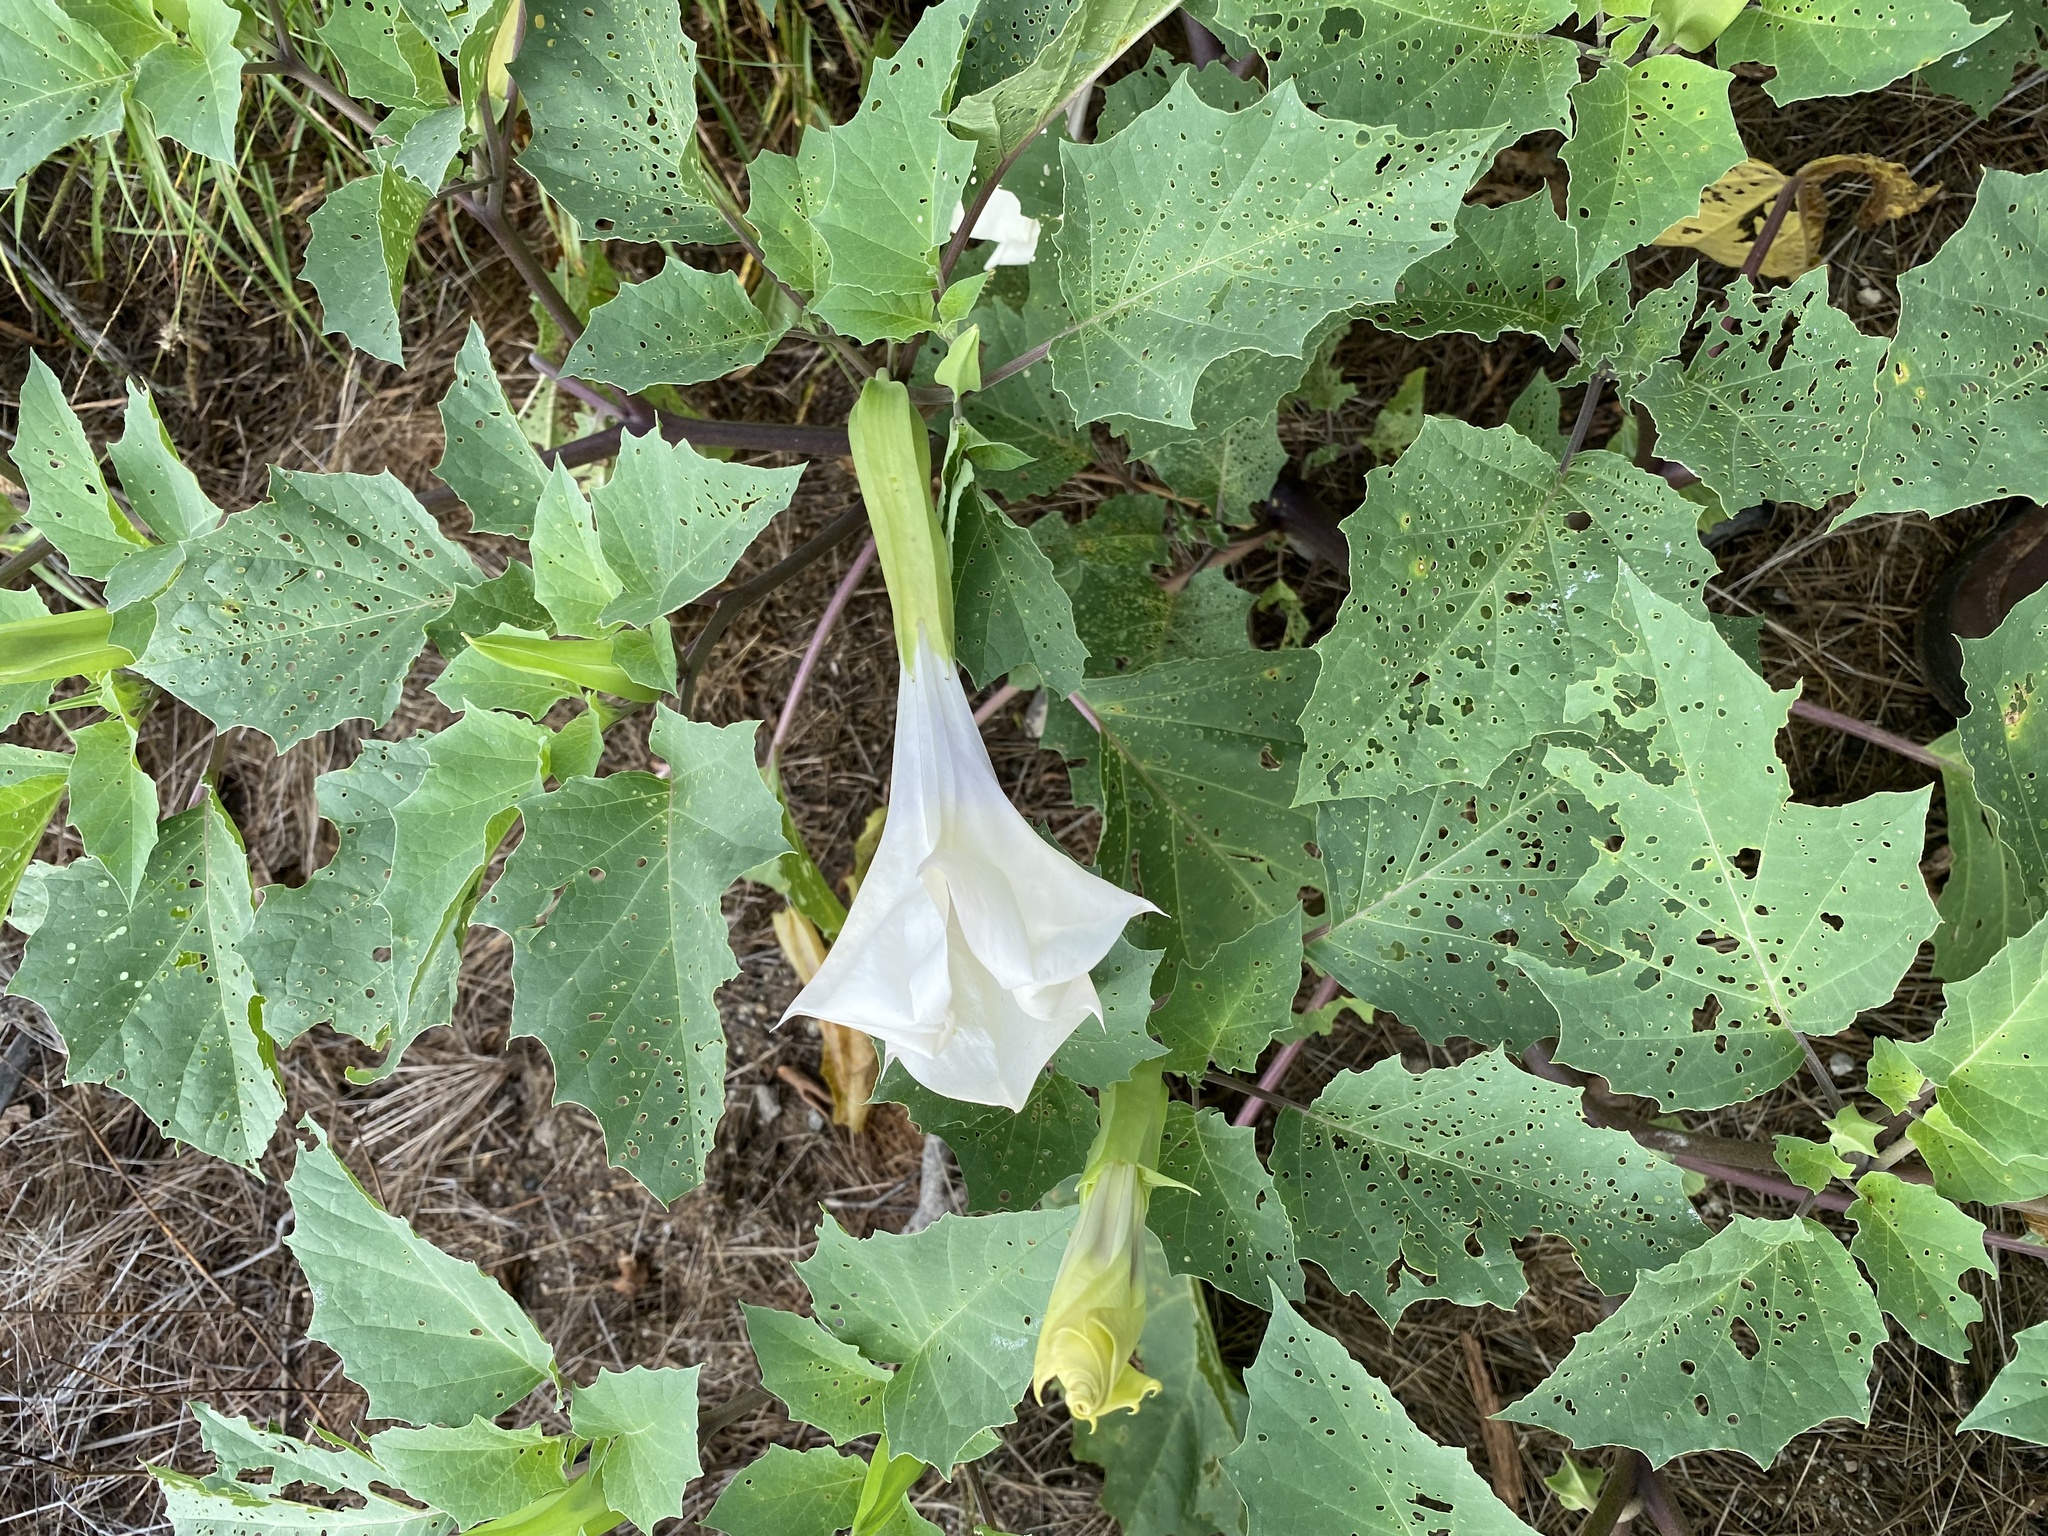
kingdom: Plantae
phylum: Tracheophyta
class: Magnoliopsida
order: Solanales
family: Solanaceae
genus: Datura
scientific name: Datura discolor
